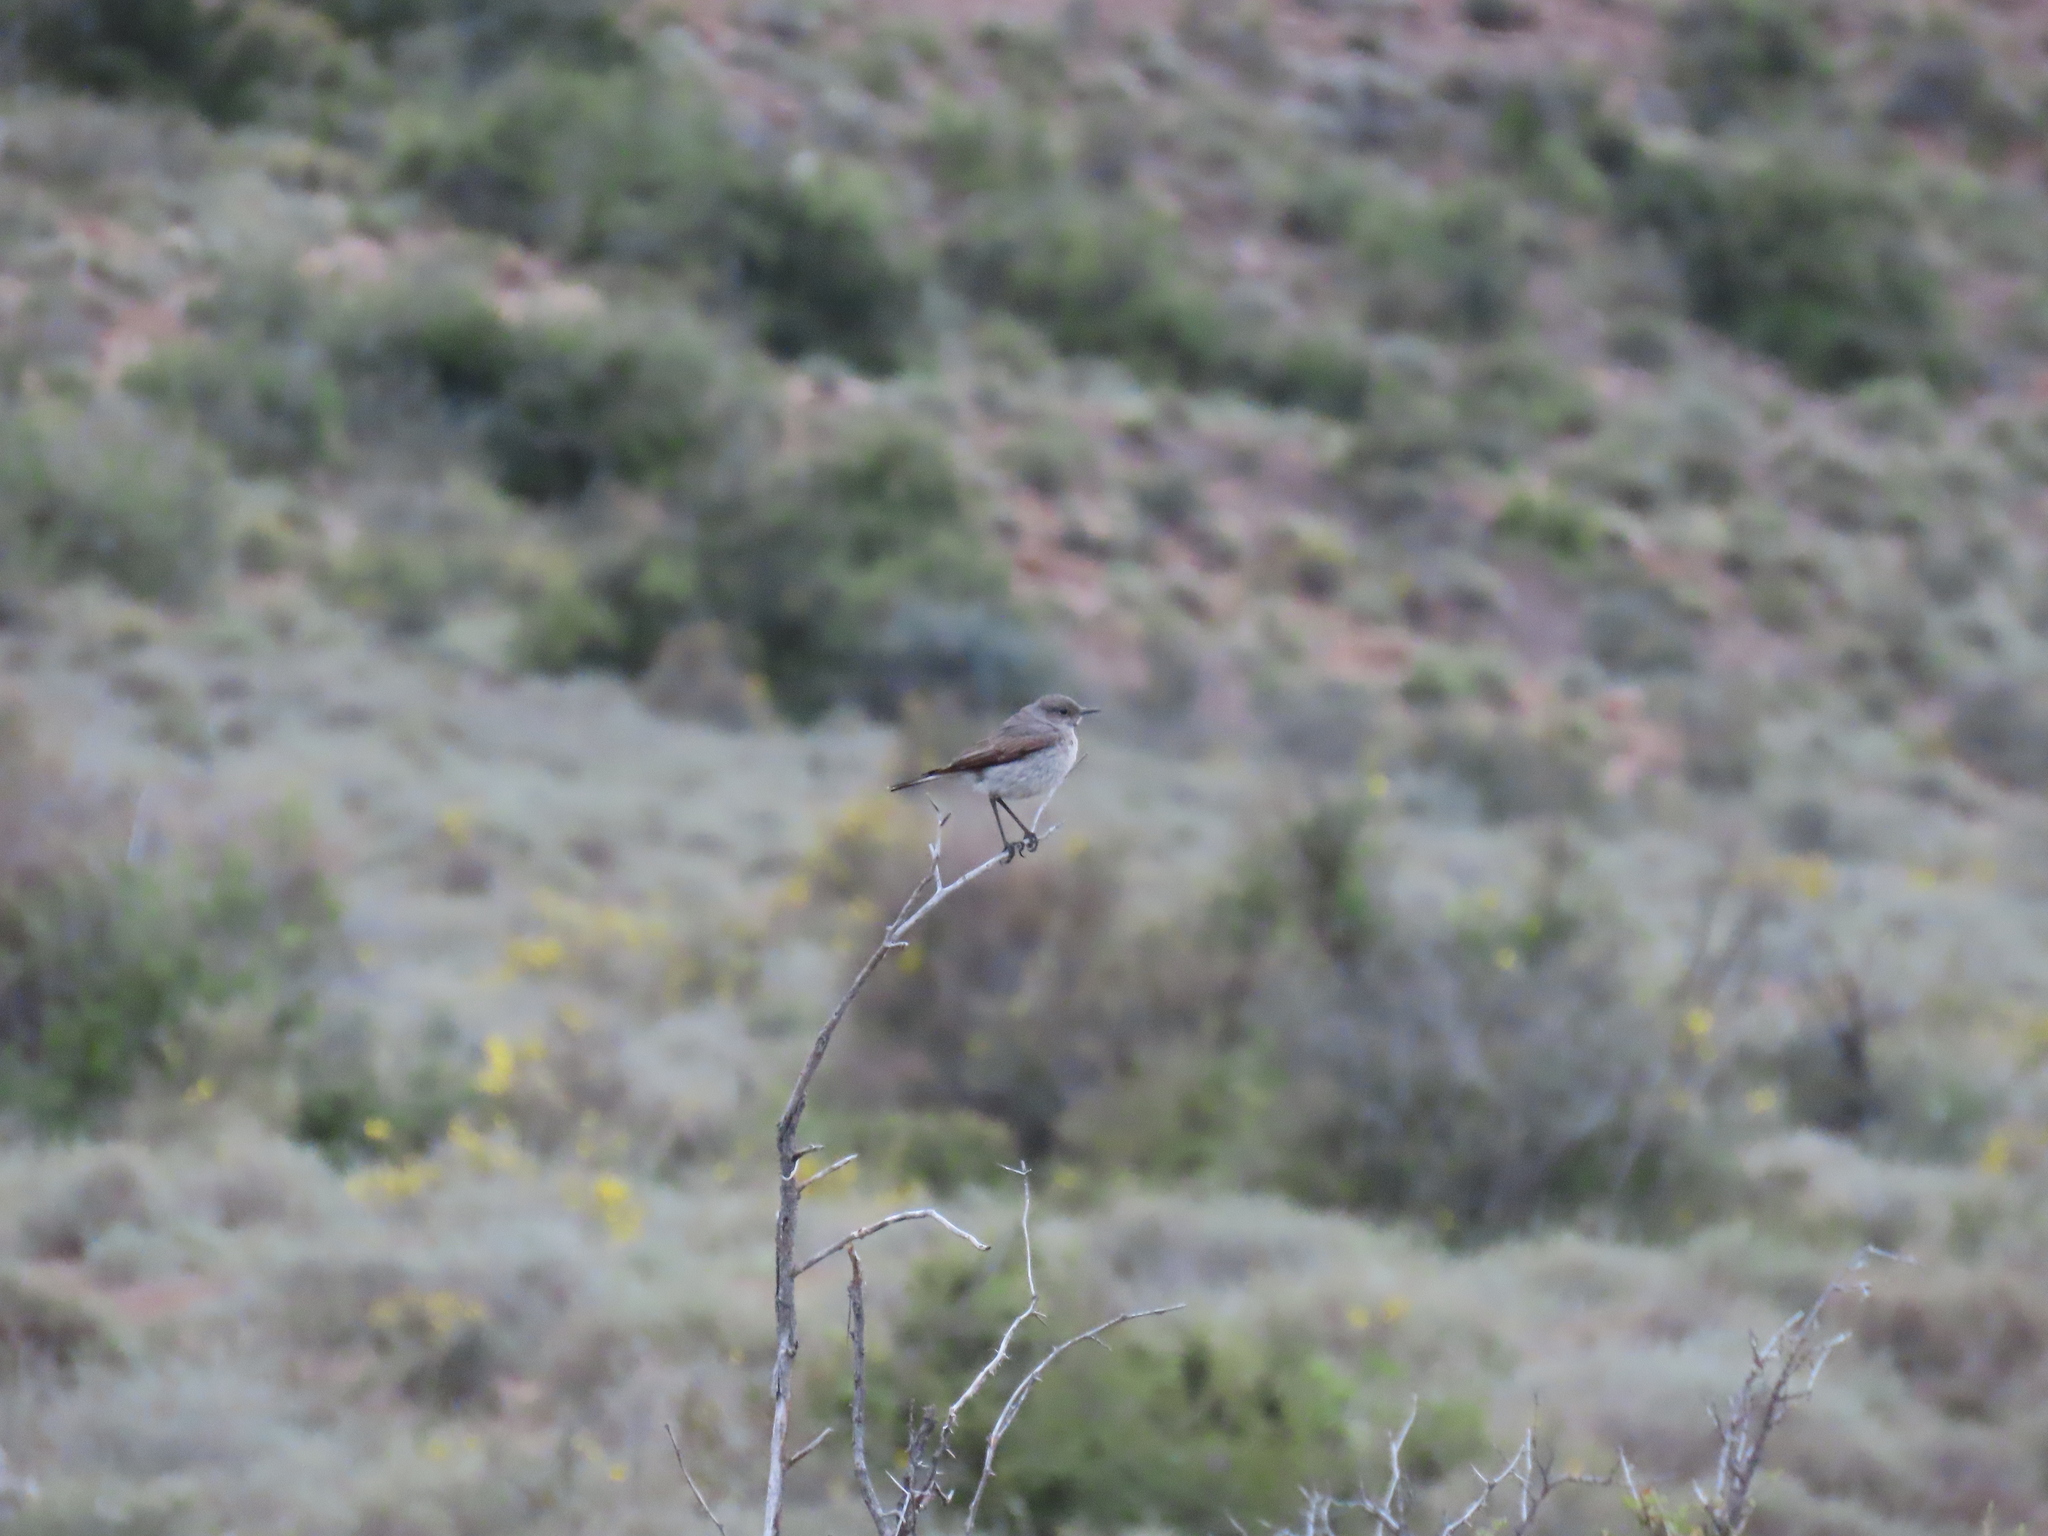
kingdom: Animalia
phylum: Chordata
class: Aves
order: Passeriformes
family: Muscicapidae
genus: Emarginata
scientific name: Emarginata schlegelii
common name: Karoo chat
